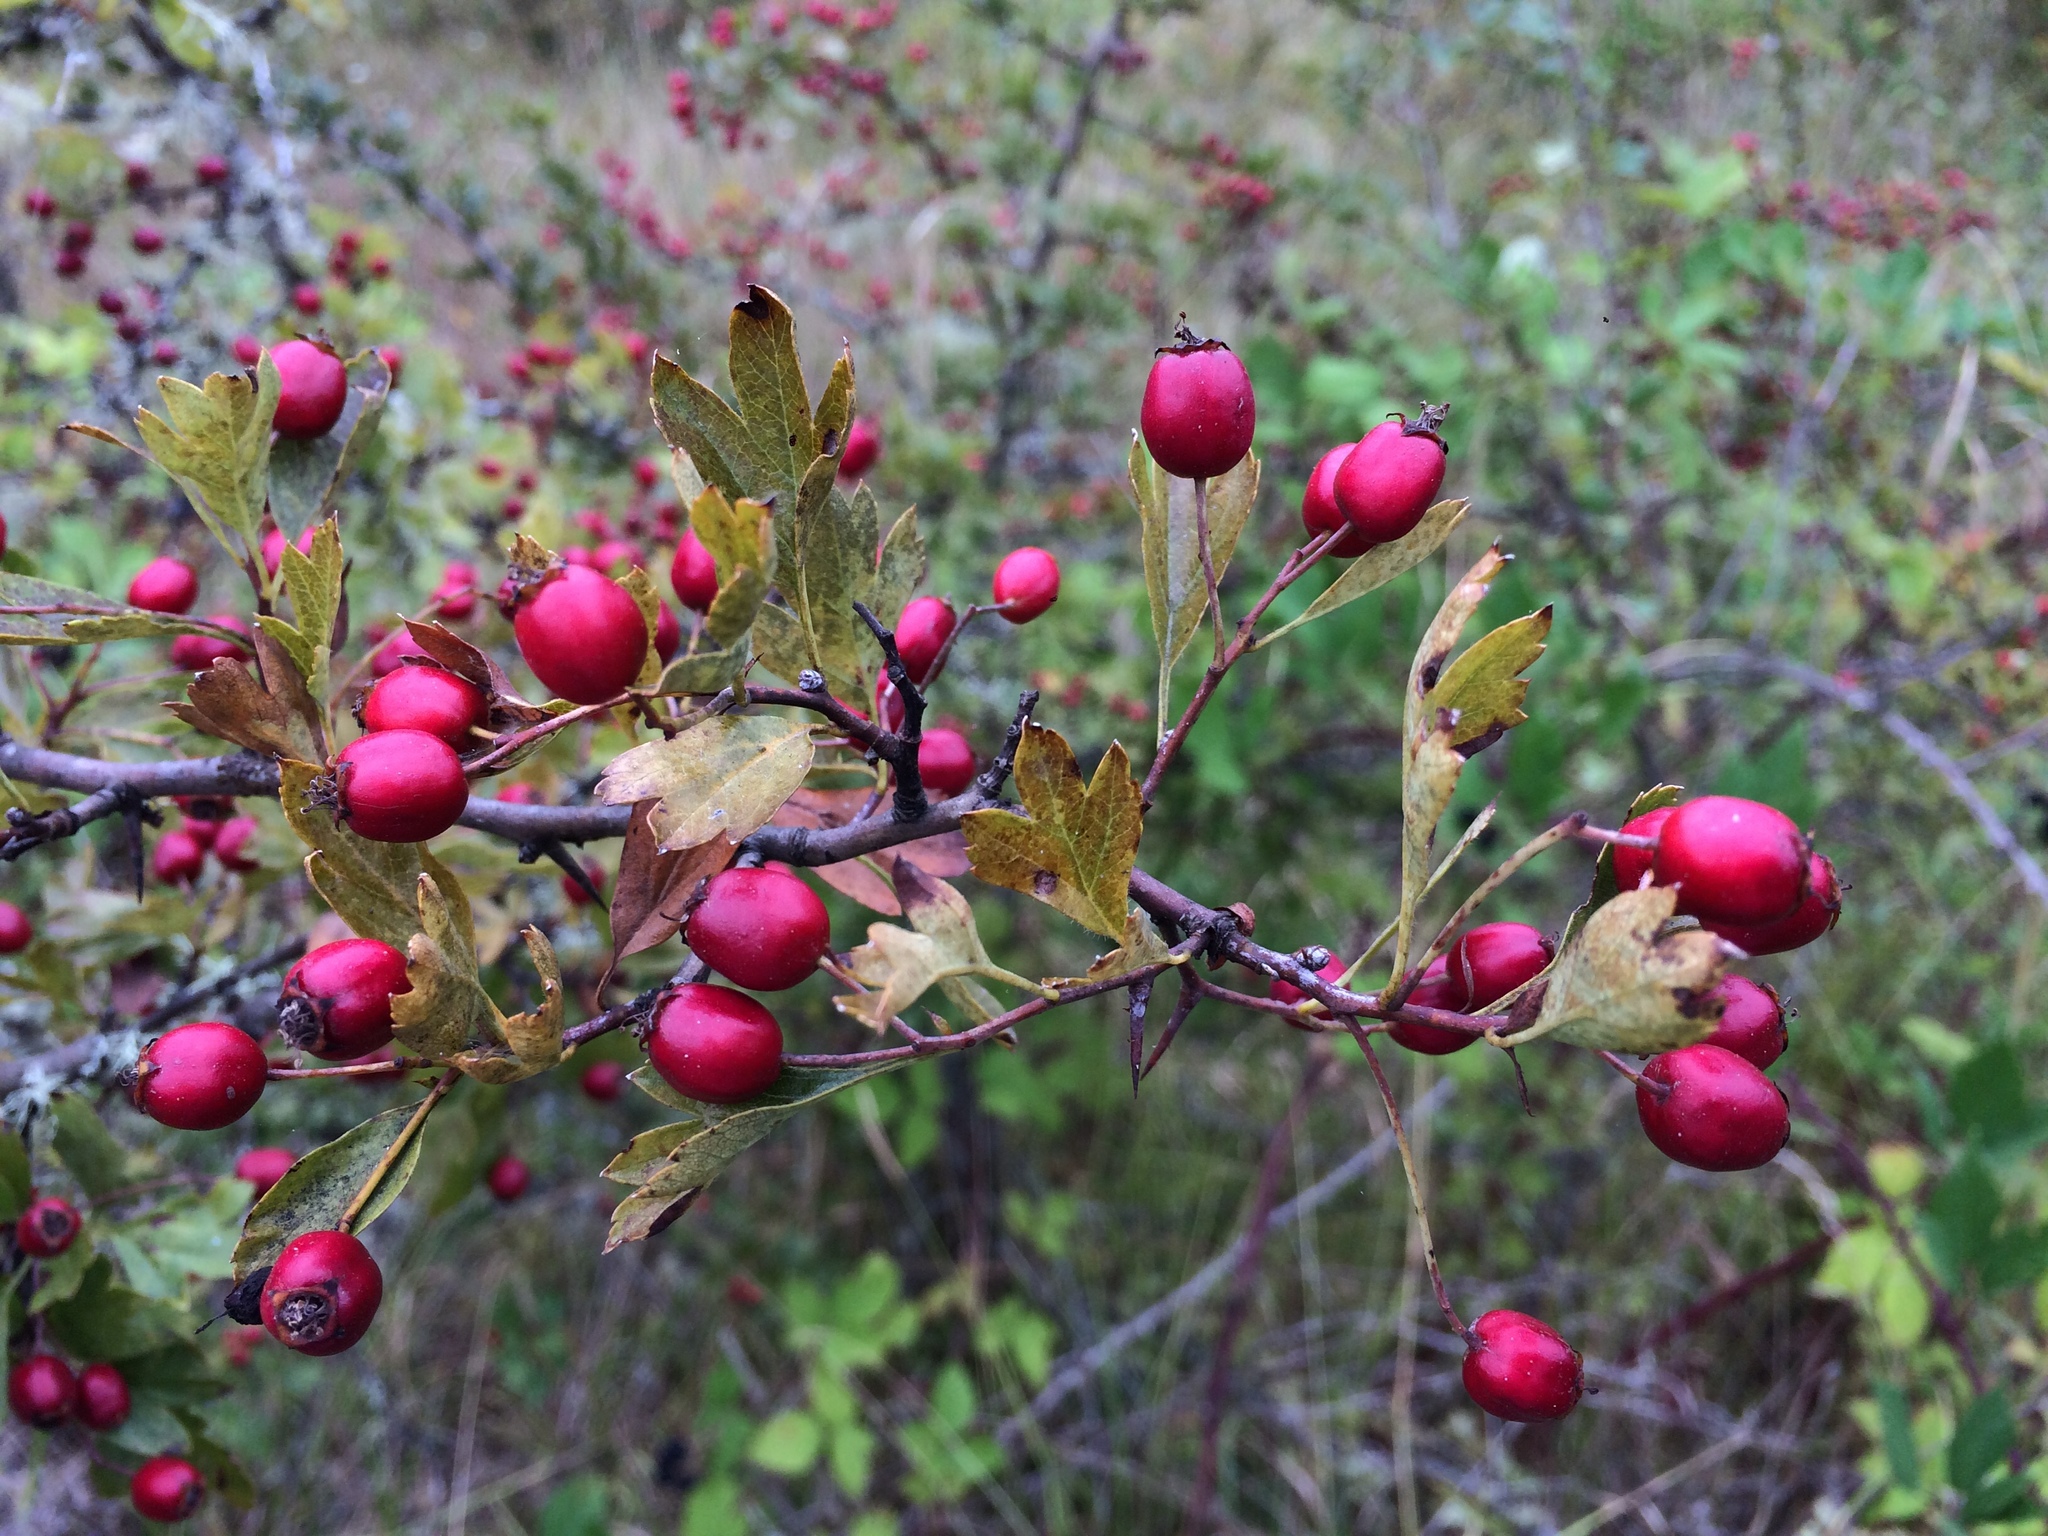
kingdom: Plantae
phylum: Tracheophyta
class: Magnoliopsida
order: Rosales
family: Rosaceae
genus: Crataegus
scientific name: Crataegus monogyna
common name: Hawthorn
